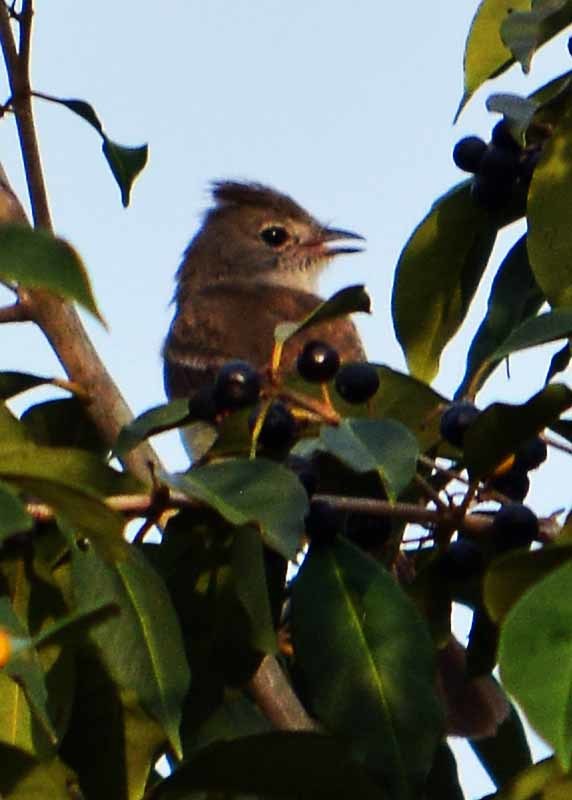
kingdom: Animalia
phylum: Chordata
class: Aves
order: Passeriformes
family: Tyrannidae
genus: Elaenia
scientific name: Elaenia flavogaster
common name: Yellow-bellied elaenia
